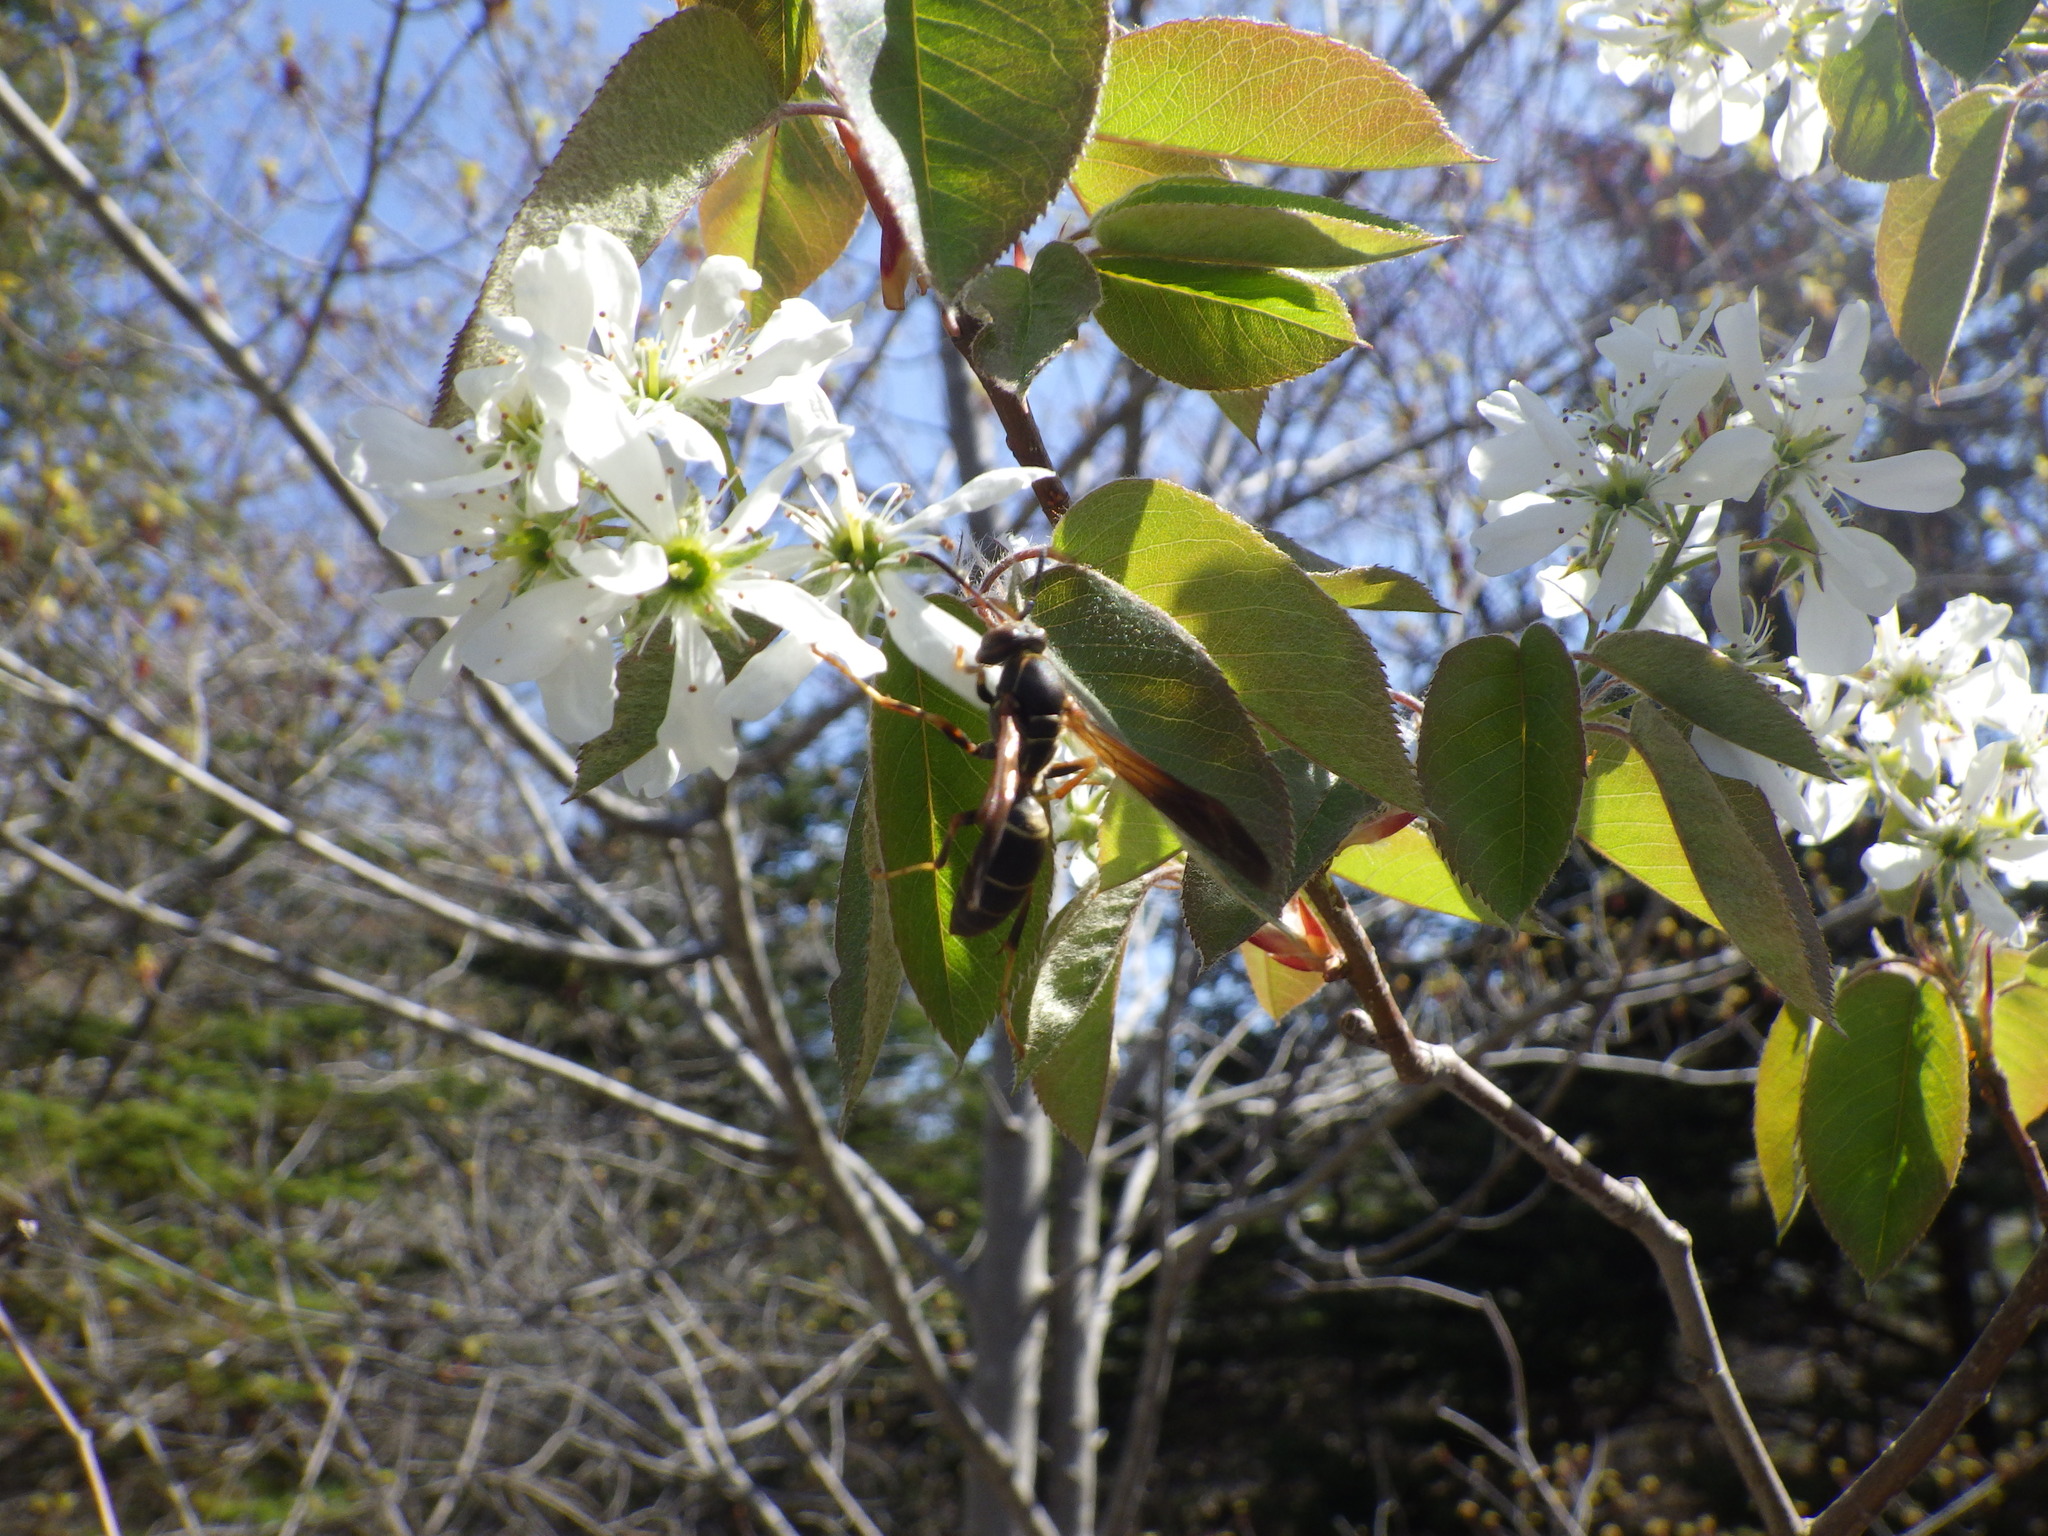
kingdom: Animalia
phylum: Arthropoda
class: Insecta
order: Hymenoptera
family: Eumenidae
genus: Polistes
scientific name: Polistes fuscatus
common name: Dark paper wasp
